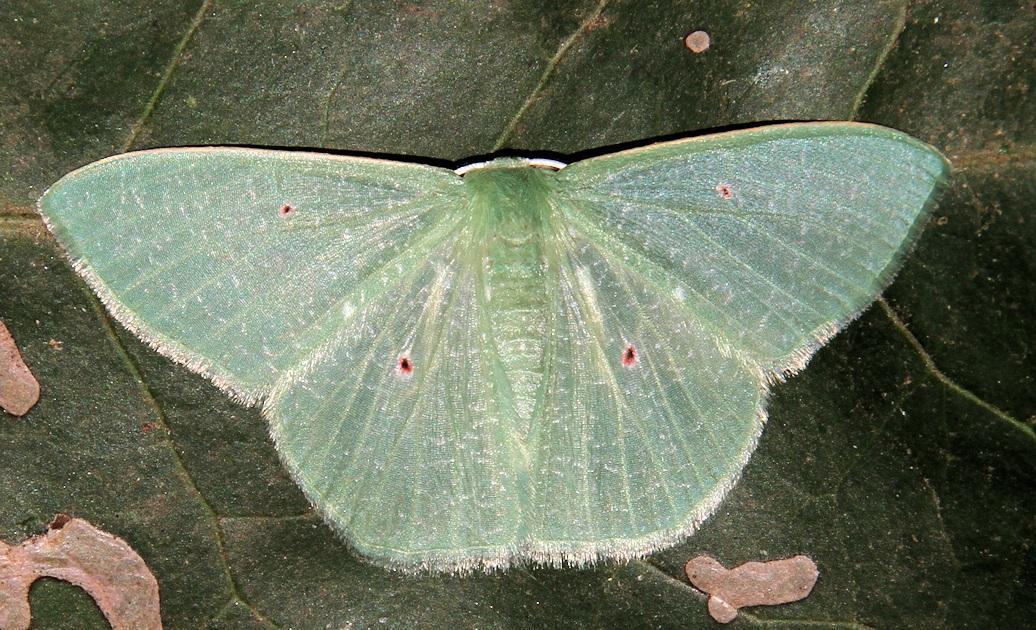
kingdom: Animalia
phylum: Arthropoda
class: Insecta
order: Lepidoptera
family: Geometridae
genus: Prasinocyma
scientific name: Prasinocyma oculata
